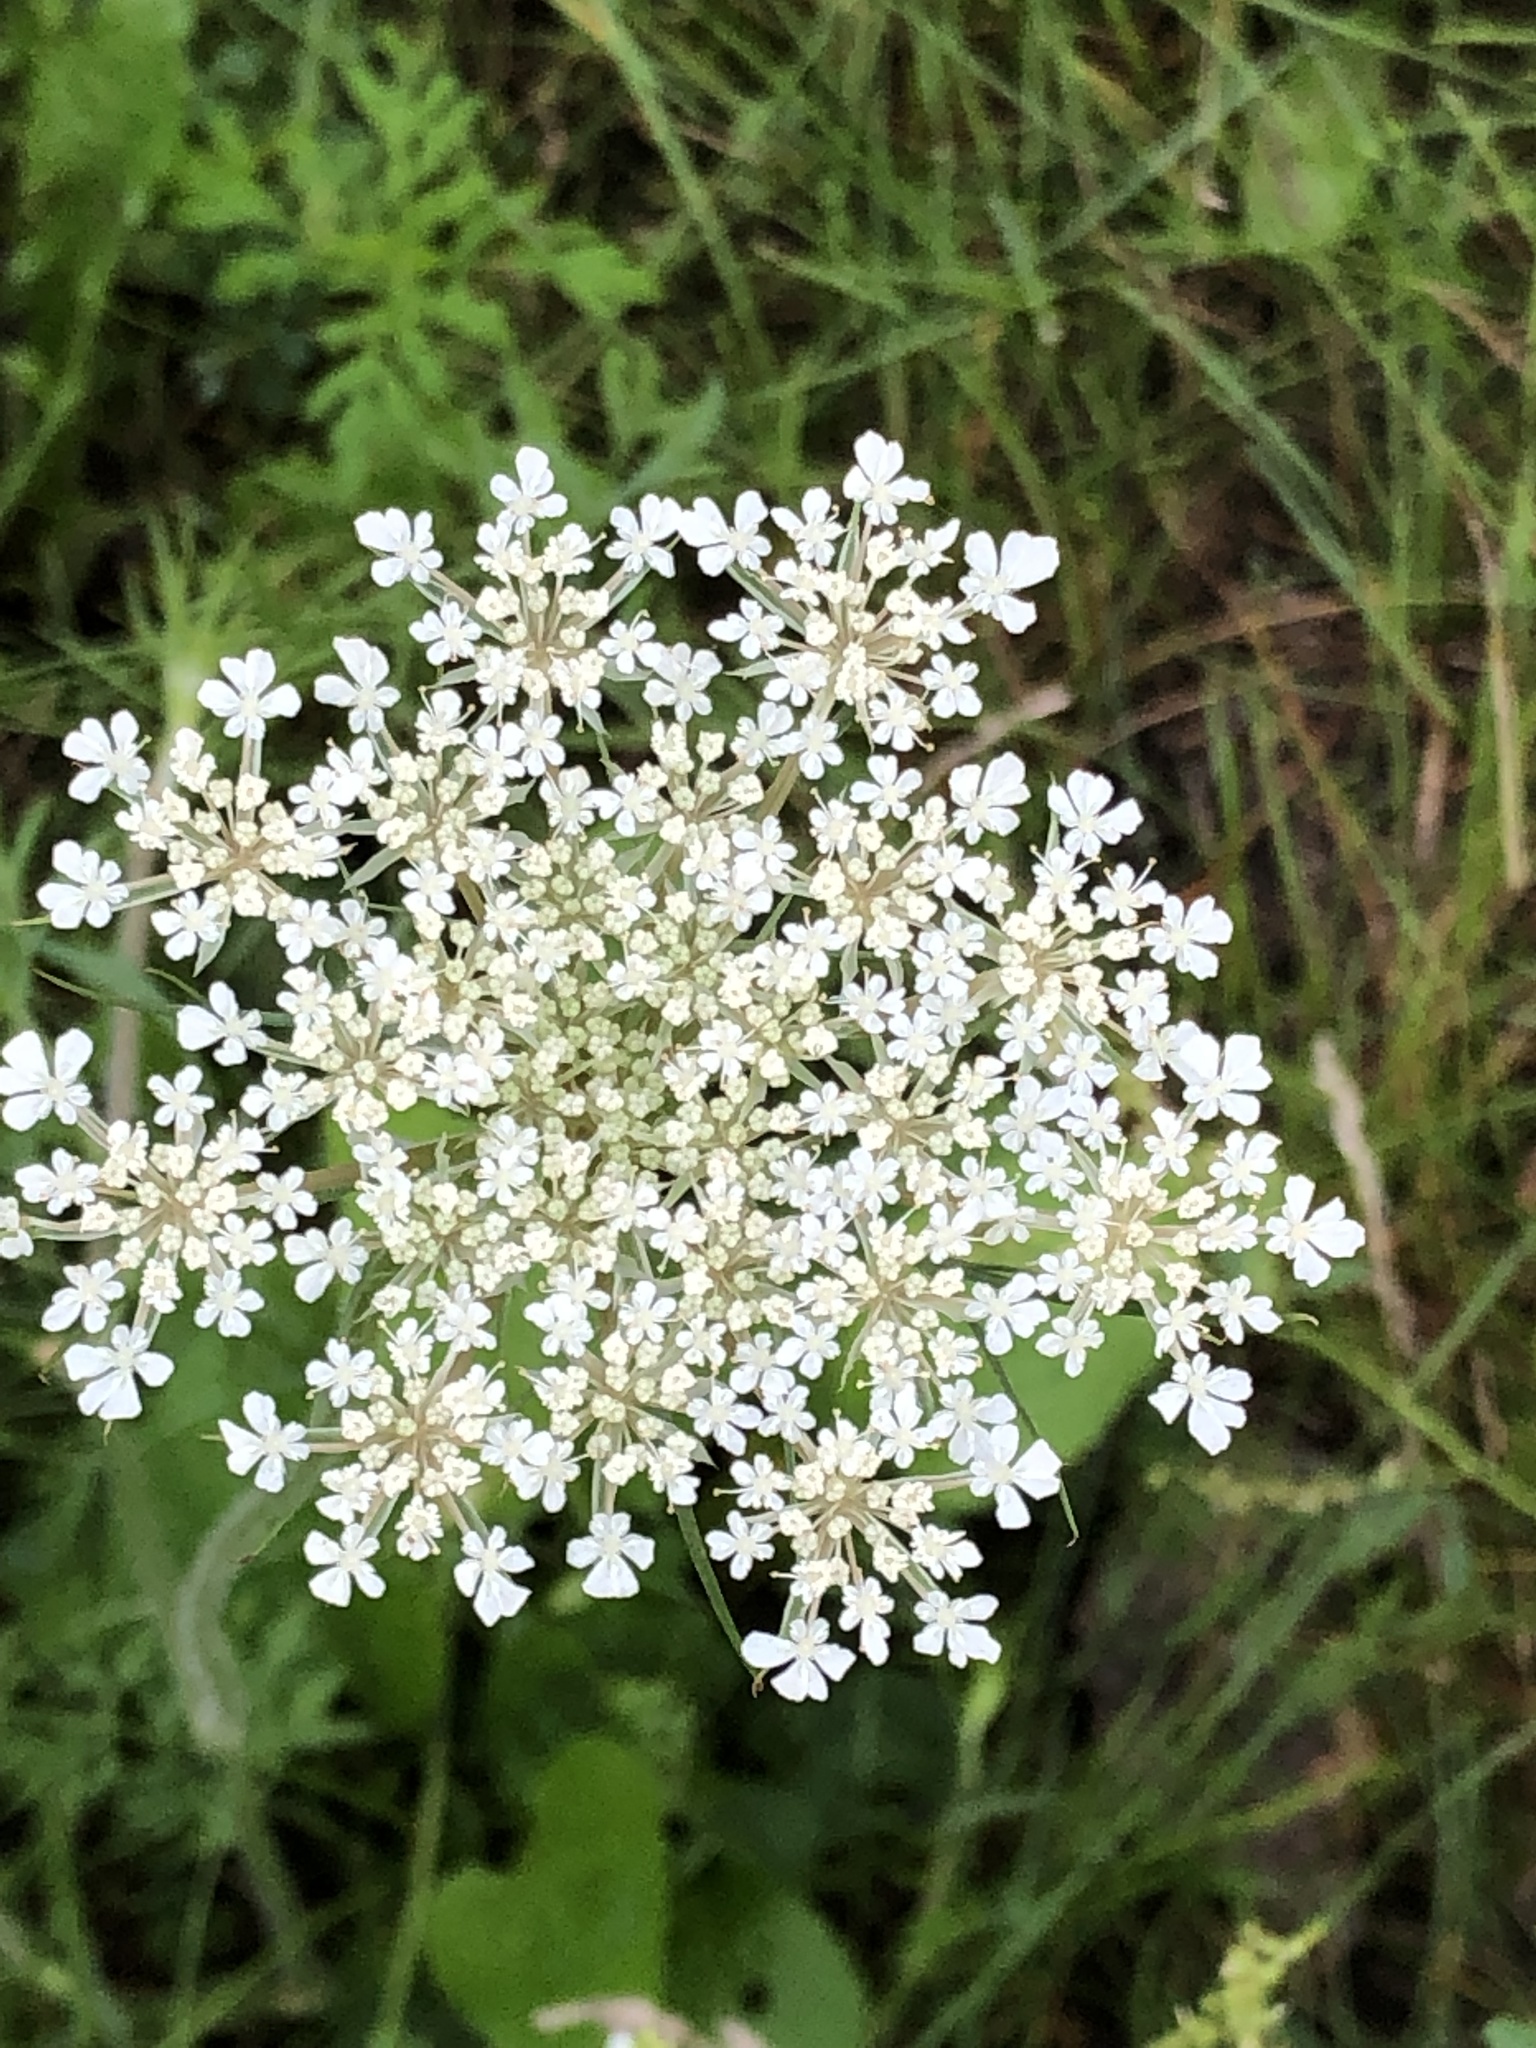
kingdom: Plantae
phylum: Tracheophyta
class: Magnoliopsida
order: Apiales
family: Apiaceae
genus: Daucus
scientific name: Daucus carota
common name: Wild carrot
